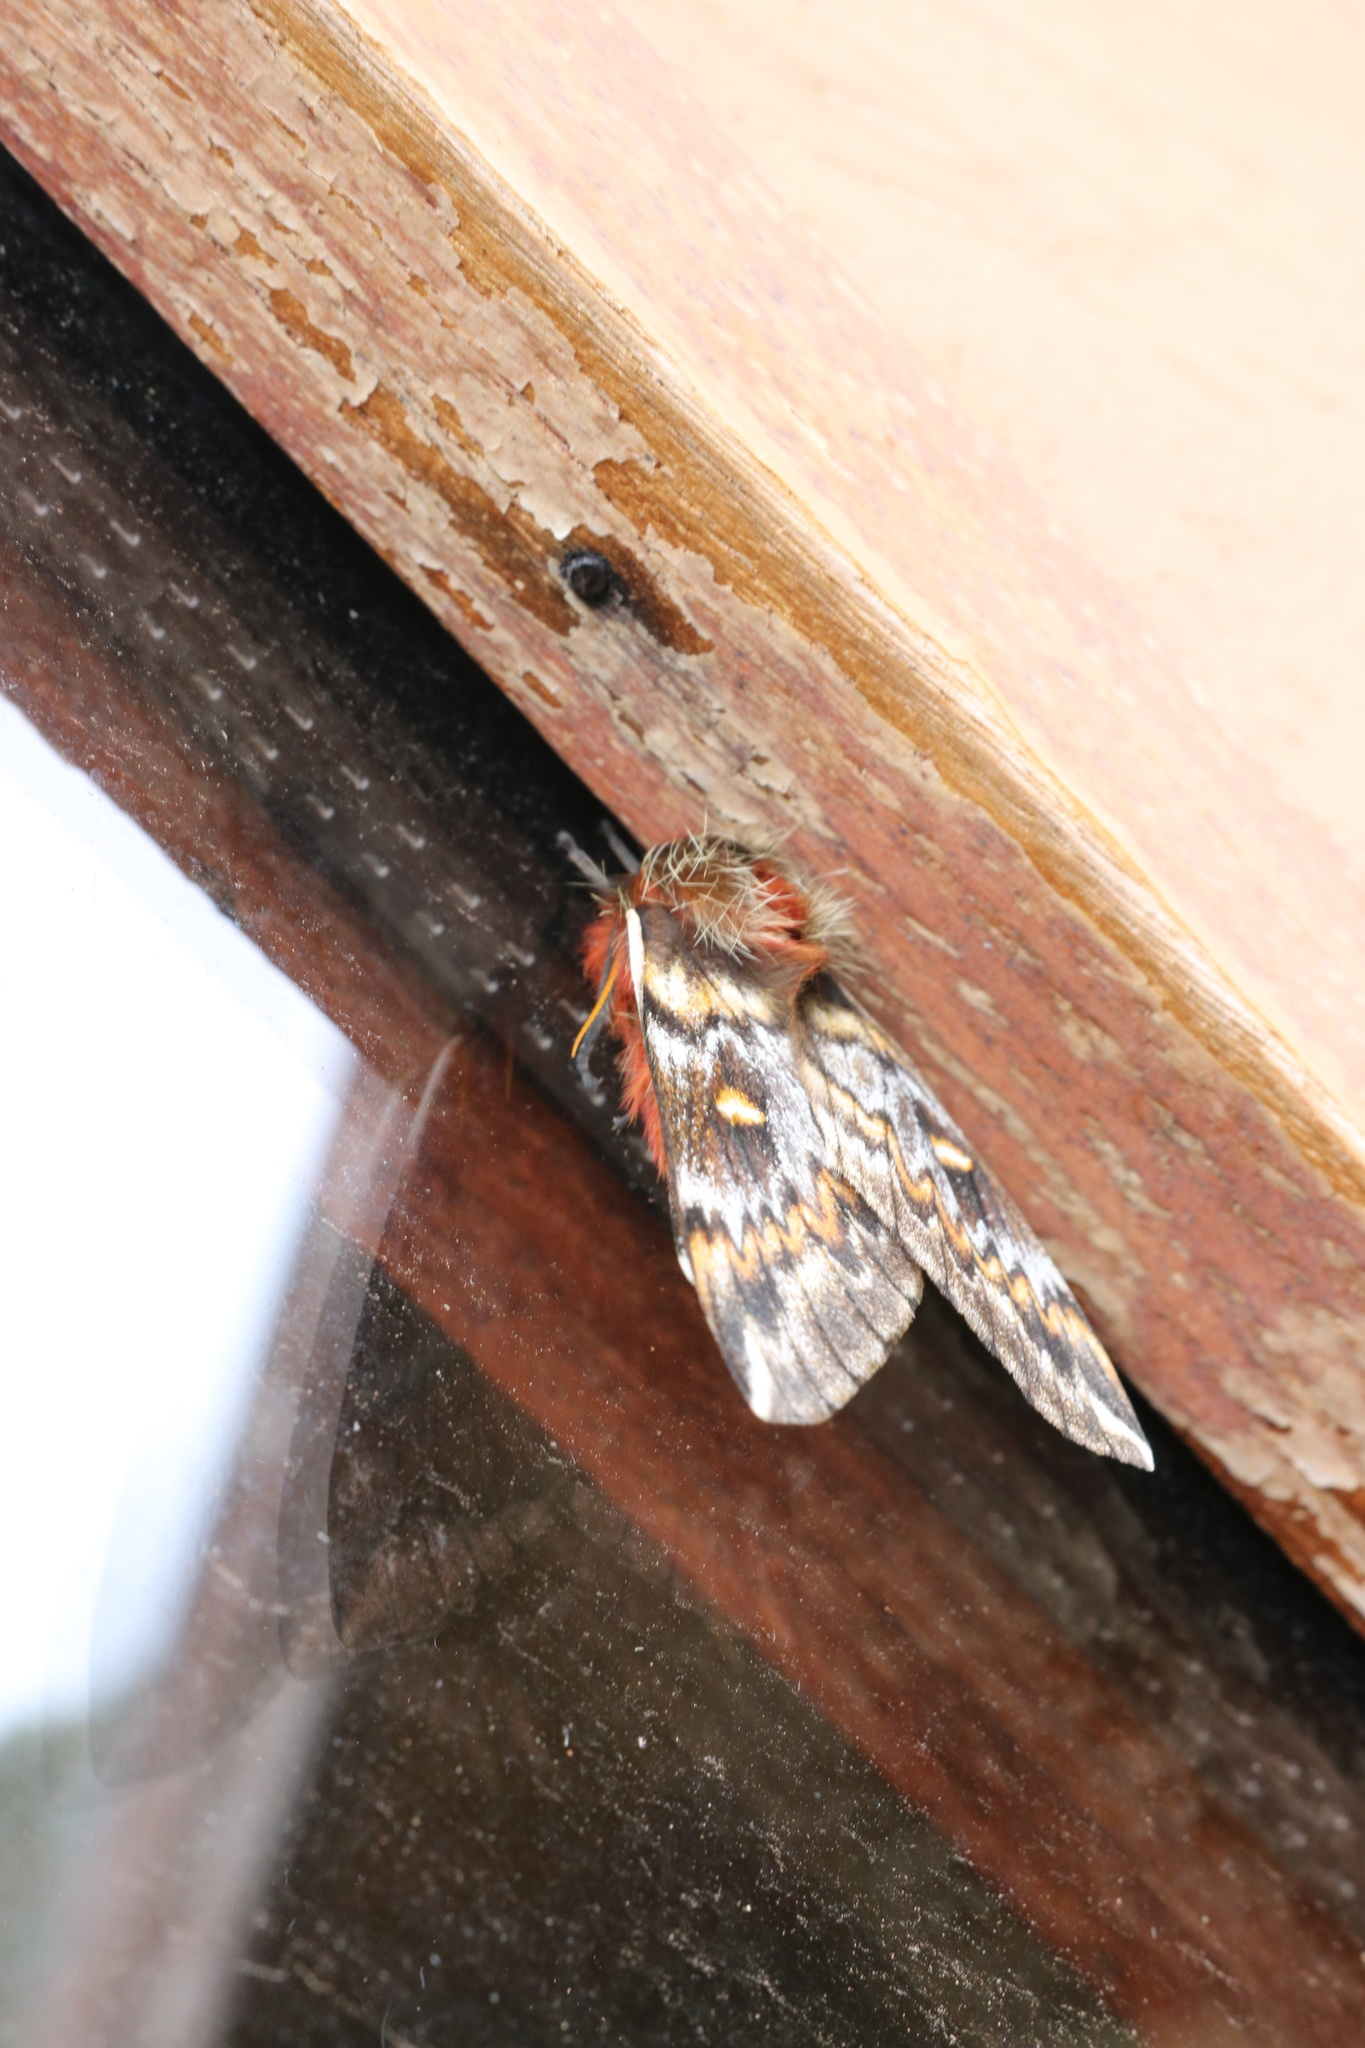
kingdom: Animalia
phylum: Arthropoda
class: Insecta
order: Lepidoptera
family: Saturniidae
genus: Ormiscodes
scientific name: Ormiscodes schmidtnielseni
